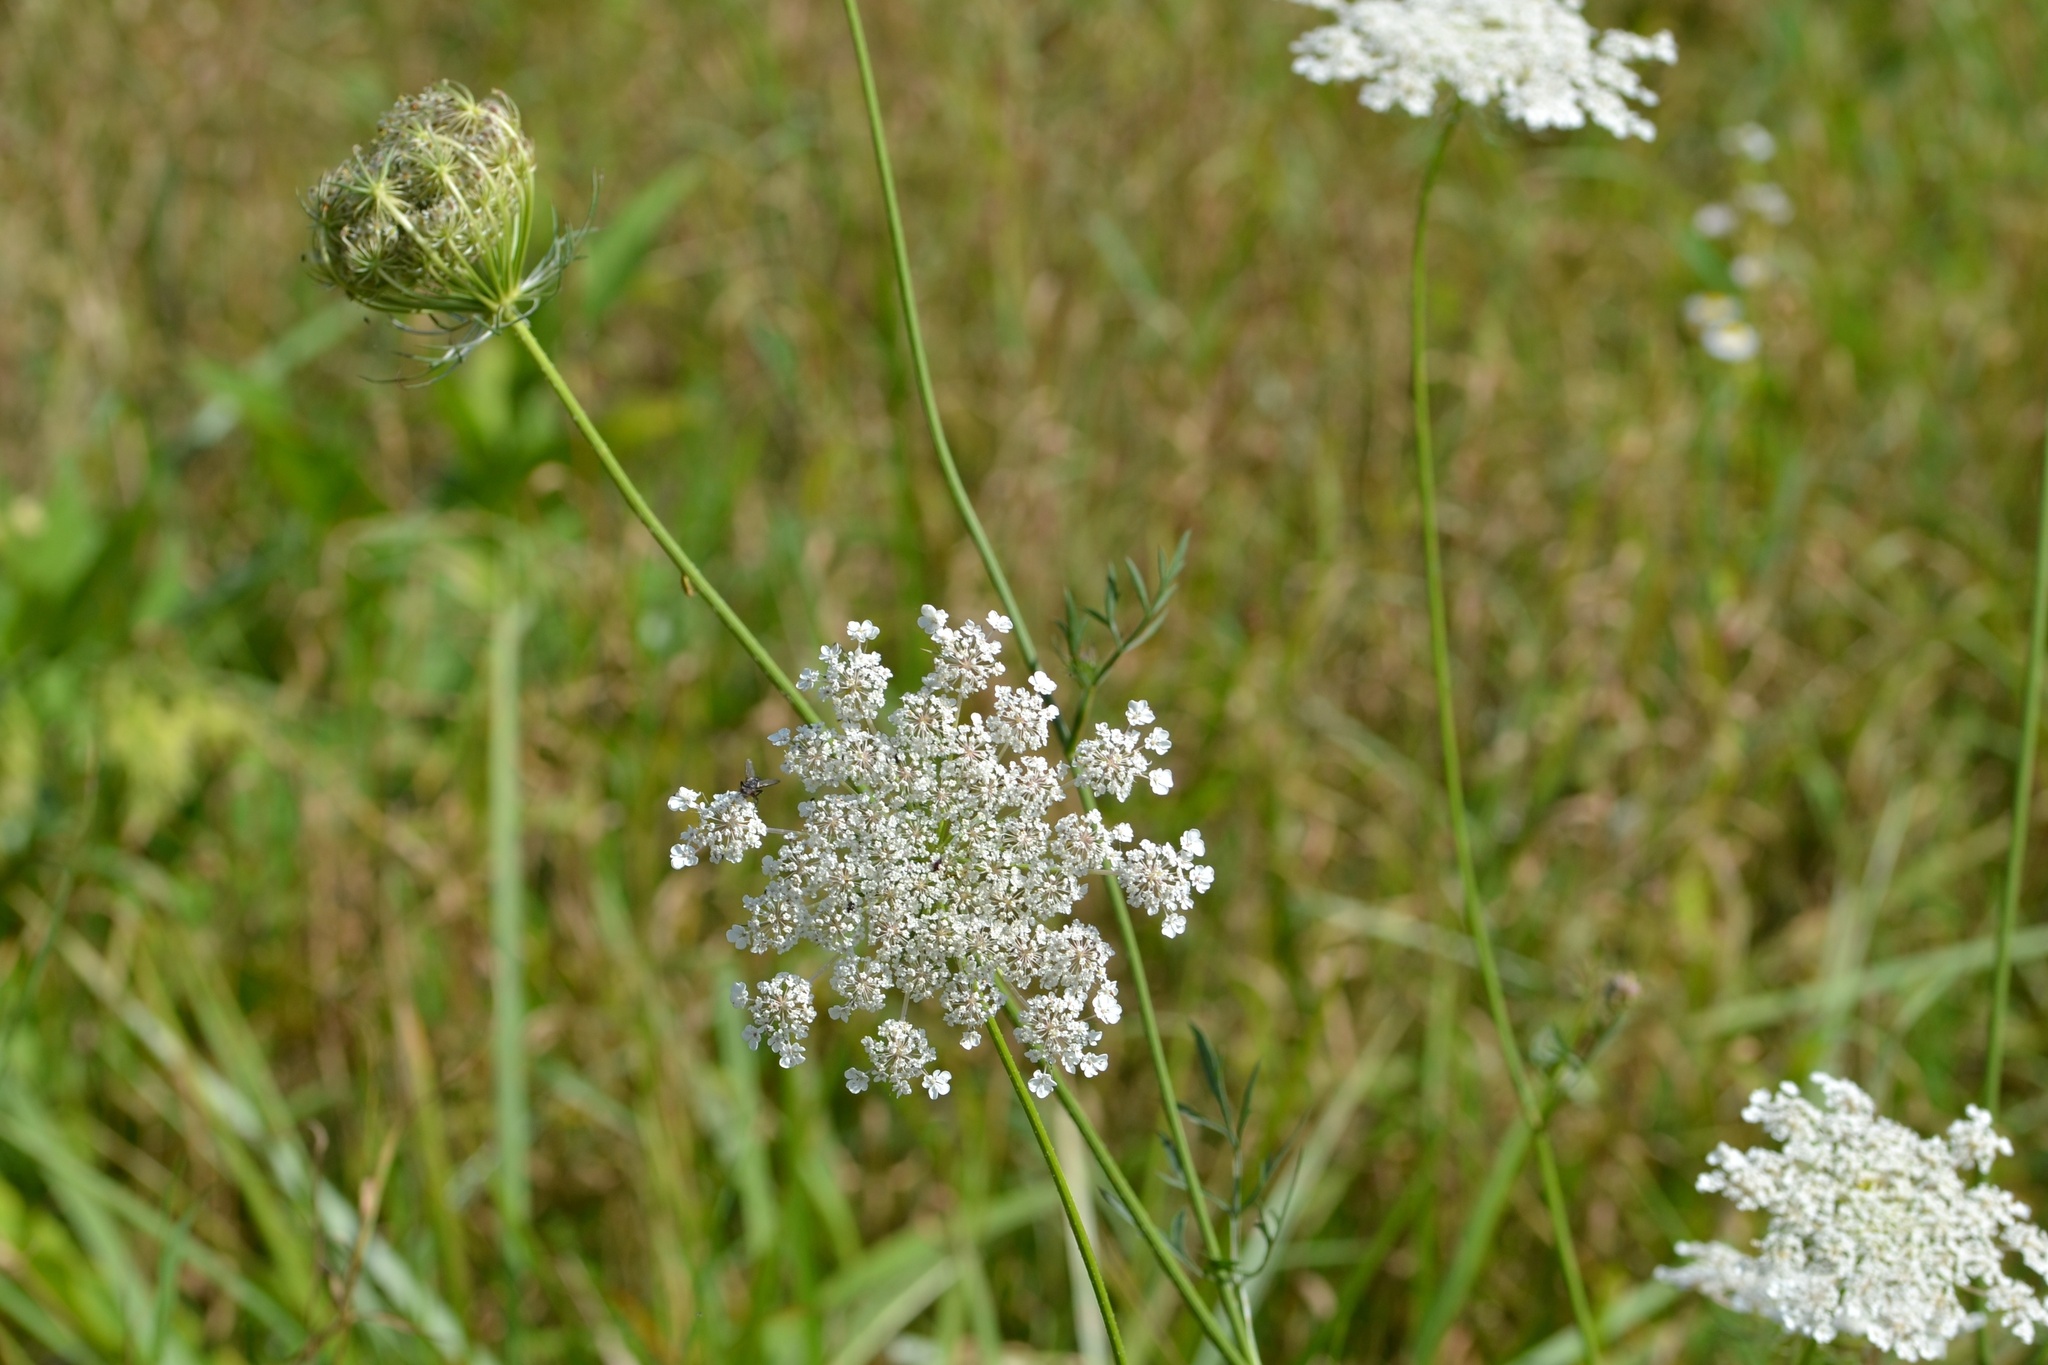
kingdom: Plantae
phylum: Tracheophyta
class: Magnoliopsida
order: Apiales
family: Apiaceae
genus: Daucus
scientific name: Daucus carota
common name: Wild carrot
